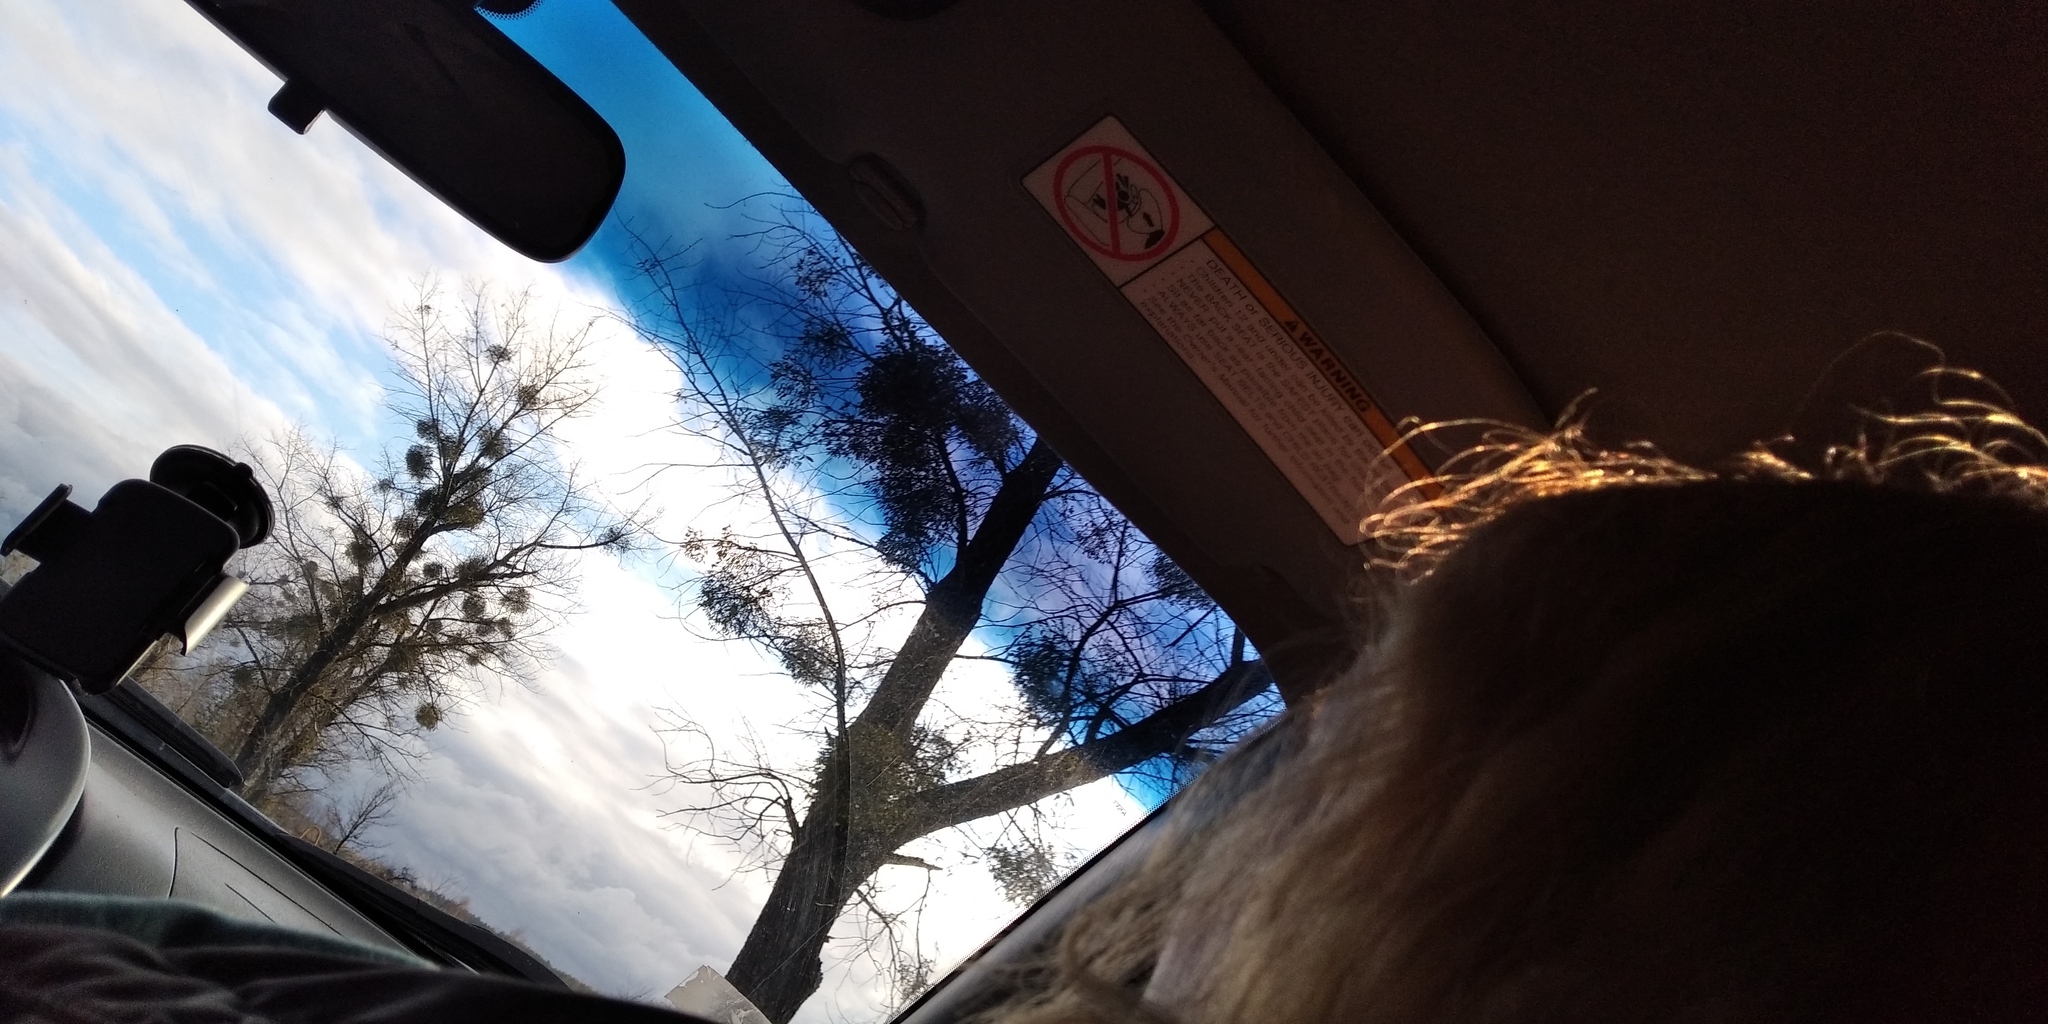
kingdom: Plantae
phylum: Tracheophyta
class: Magnoliopsida
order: Santalales
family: Viscaceae
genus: Viscum
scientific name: Viscum album
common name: Mistletoe
